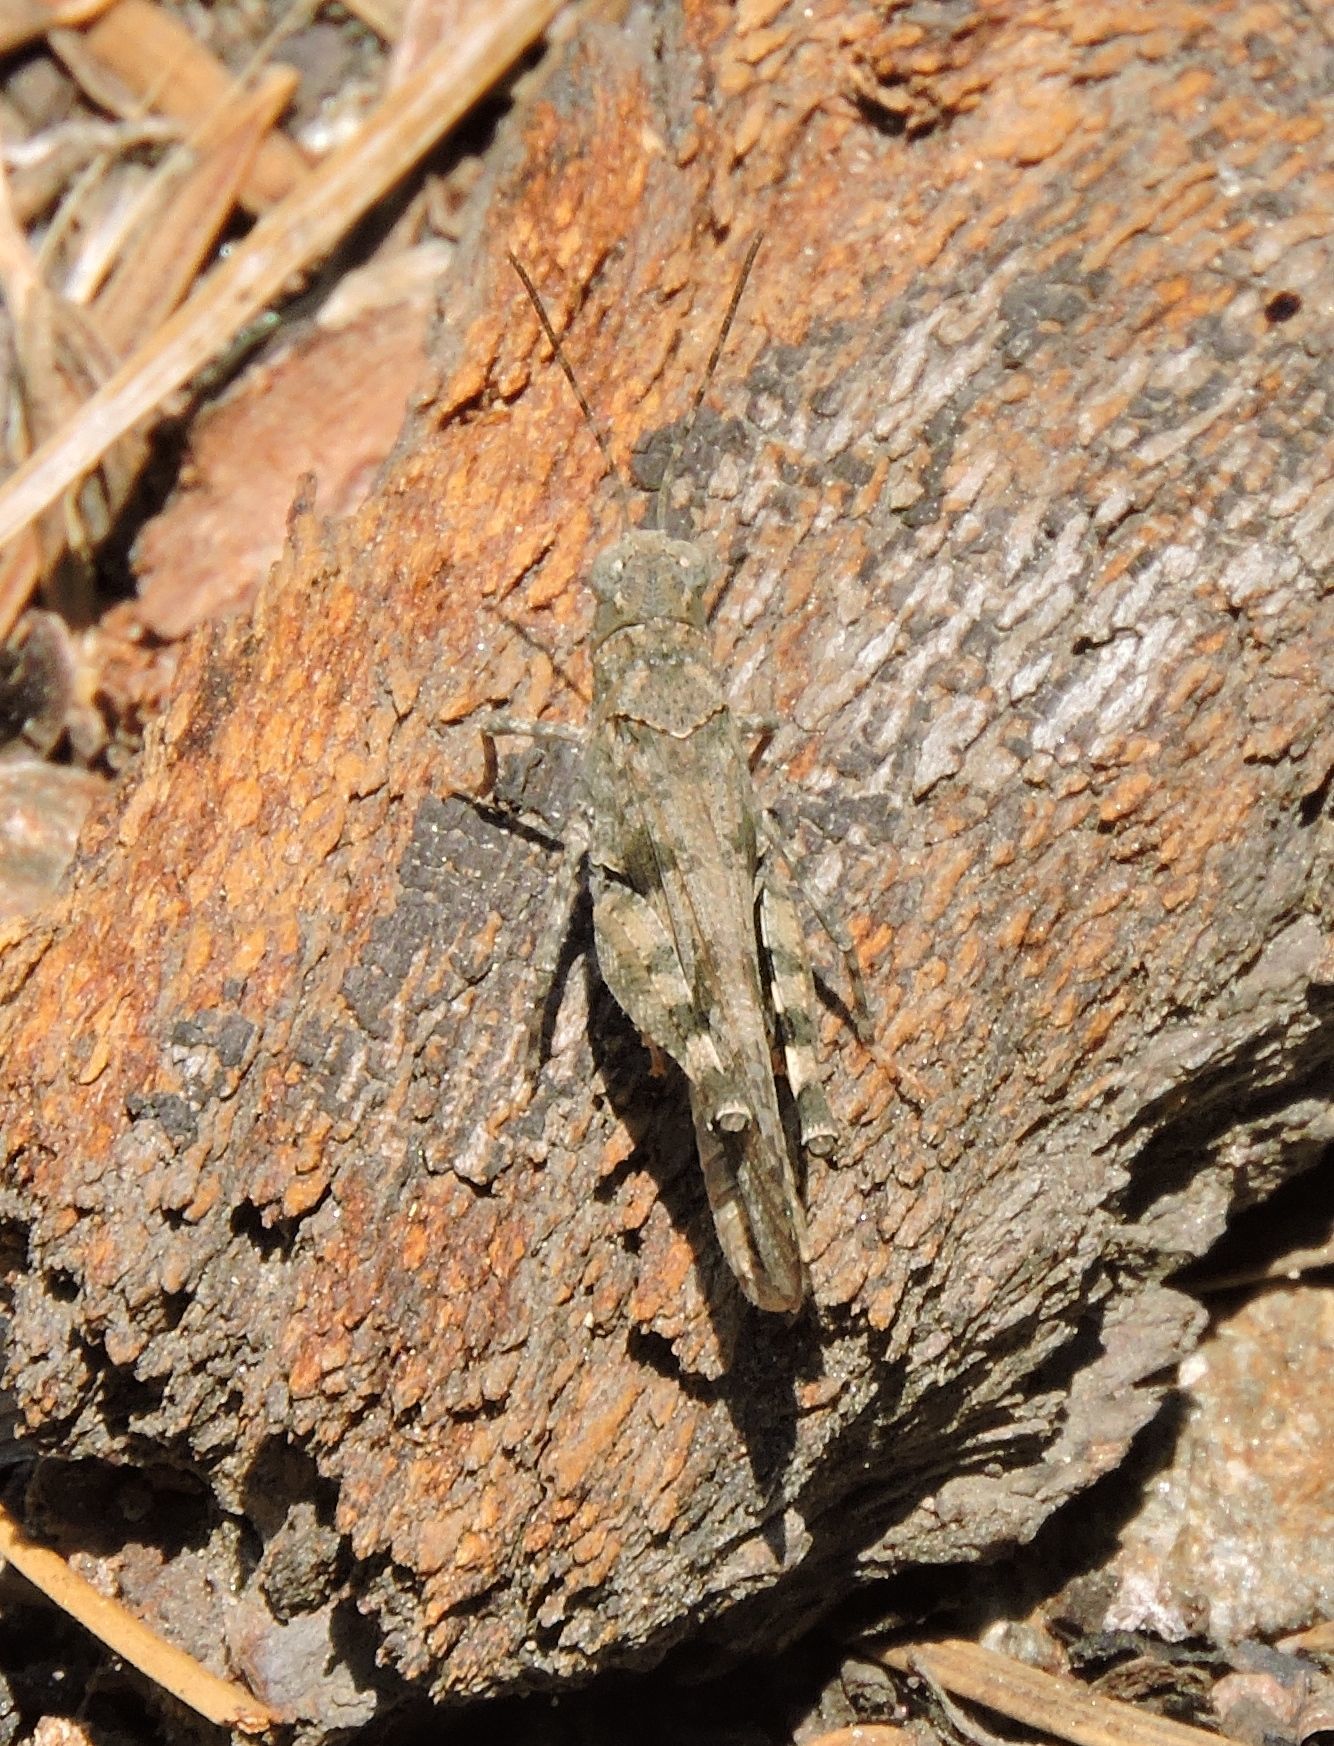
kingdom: Animalia
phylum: Arthropoda
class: Insecta
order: Orthoptera
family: Acrididae
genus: Trimerotropis
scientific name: Trimerotropis fontana
